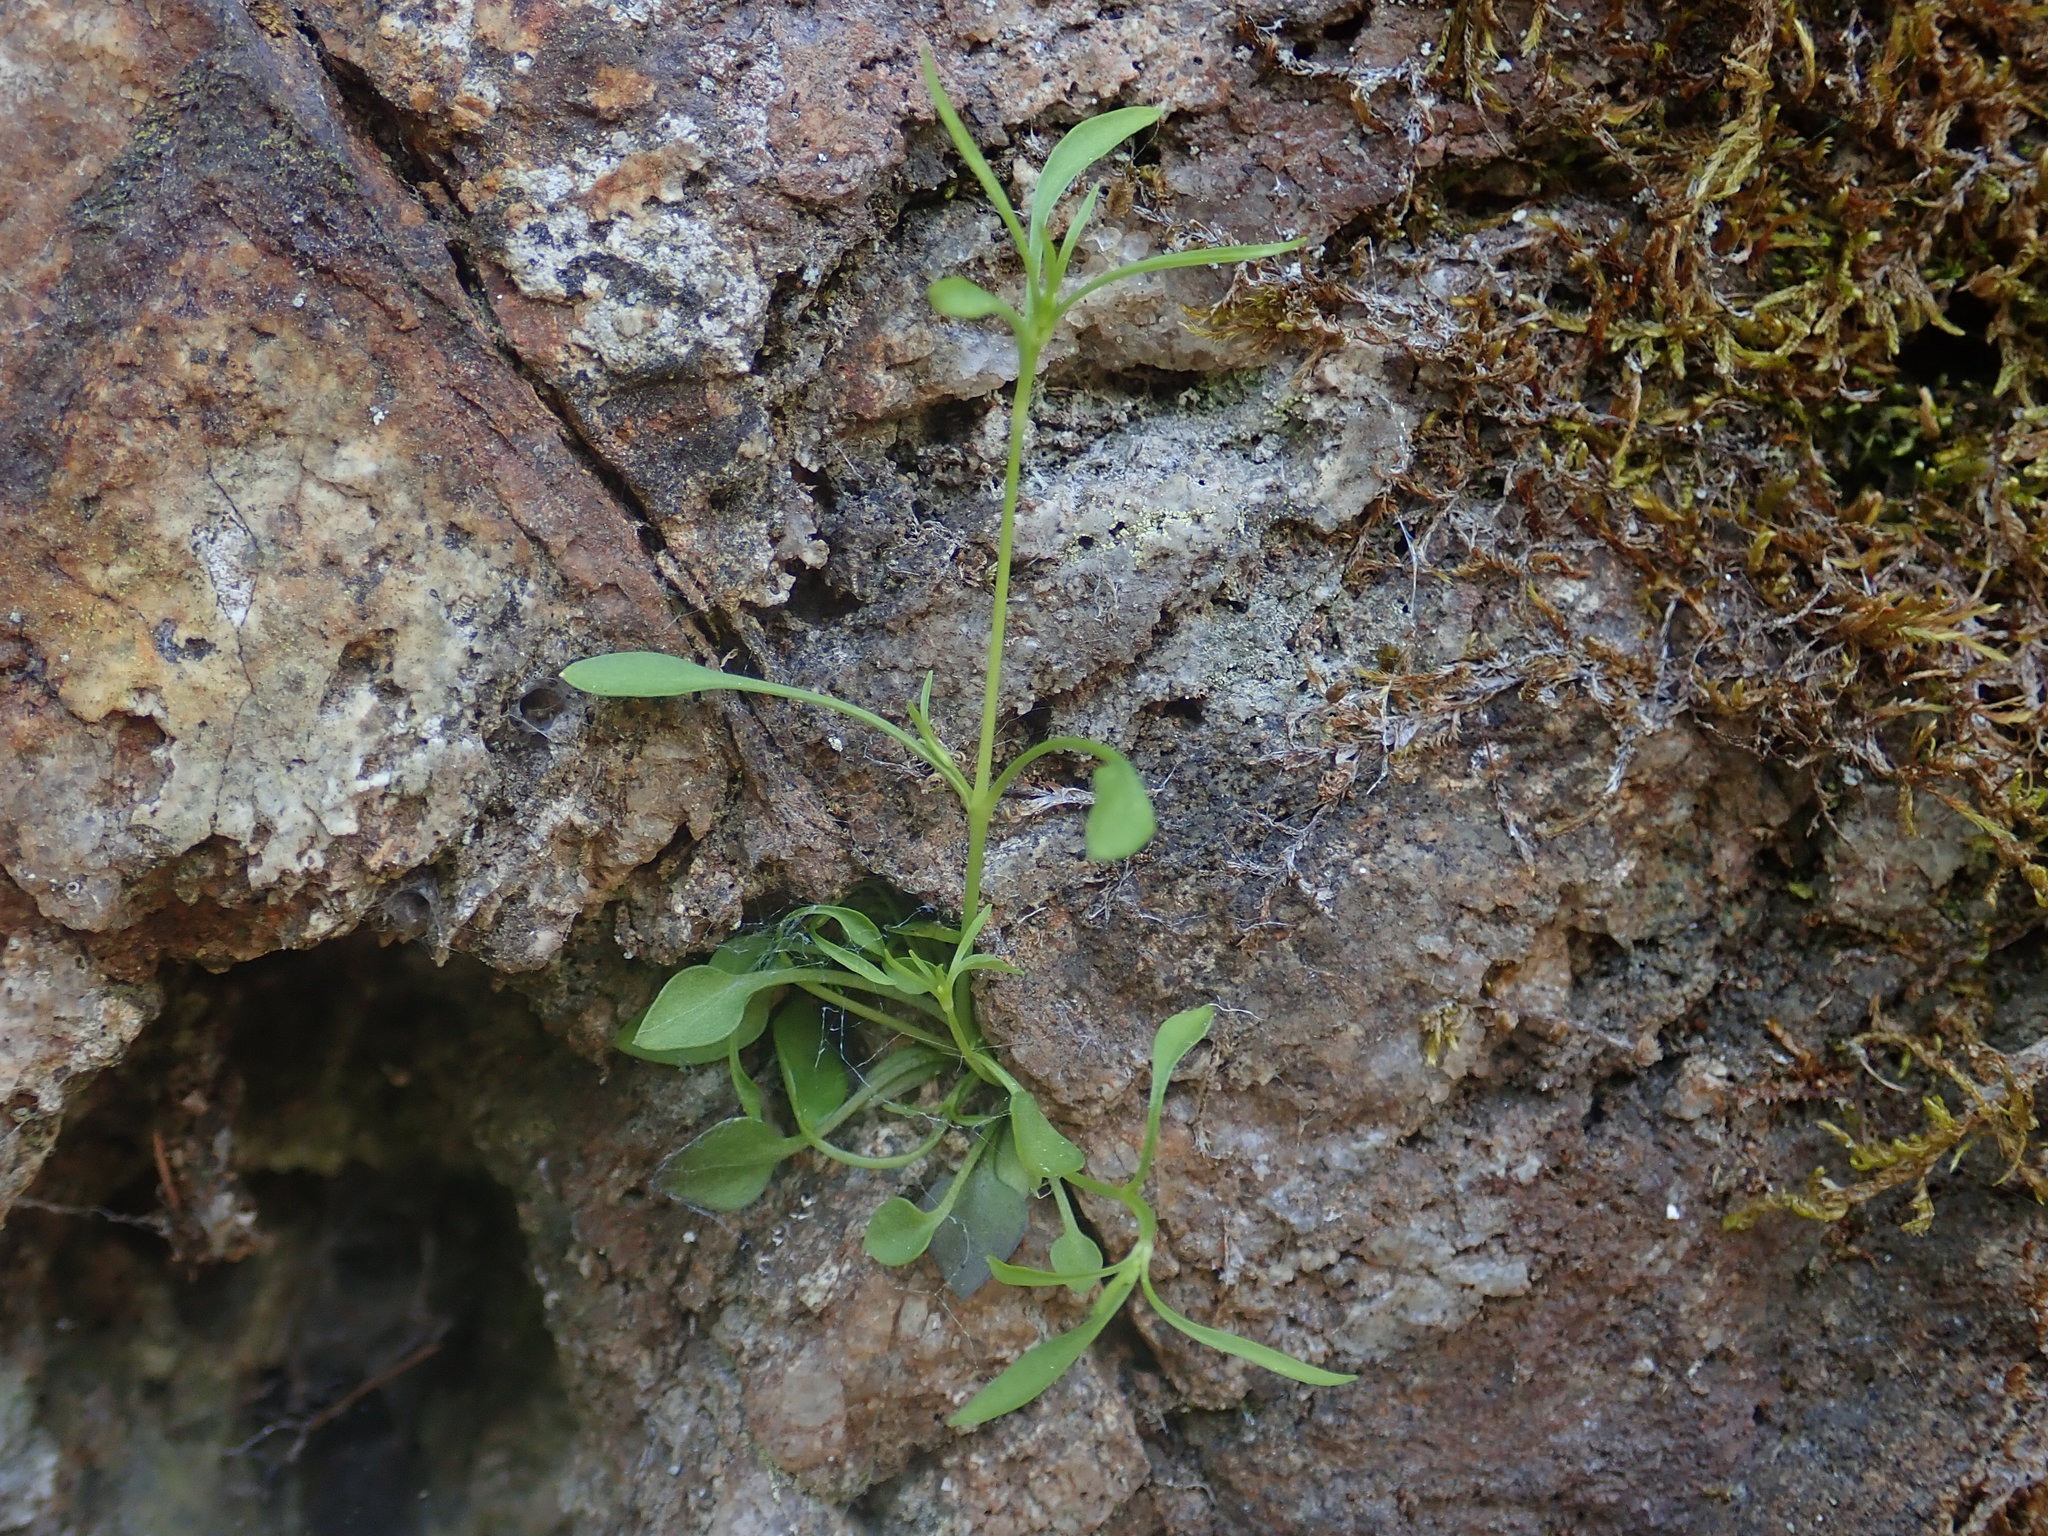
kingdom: Plantae
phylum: Tracheophyta
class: Magnoliopsida
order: Caryophyllales
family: Caryophyllaceae
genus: Moehringia
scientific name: Moehringia diversifolia
